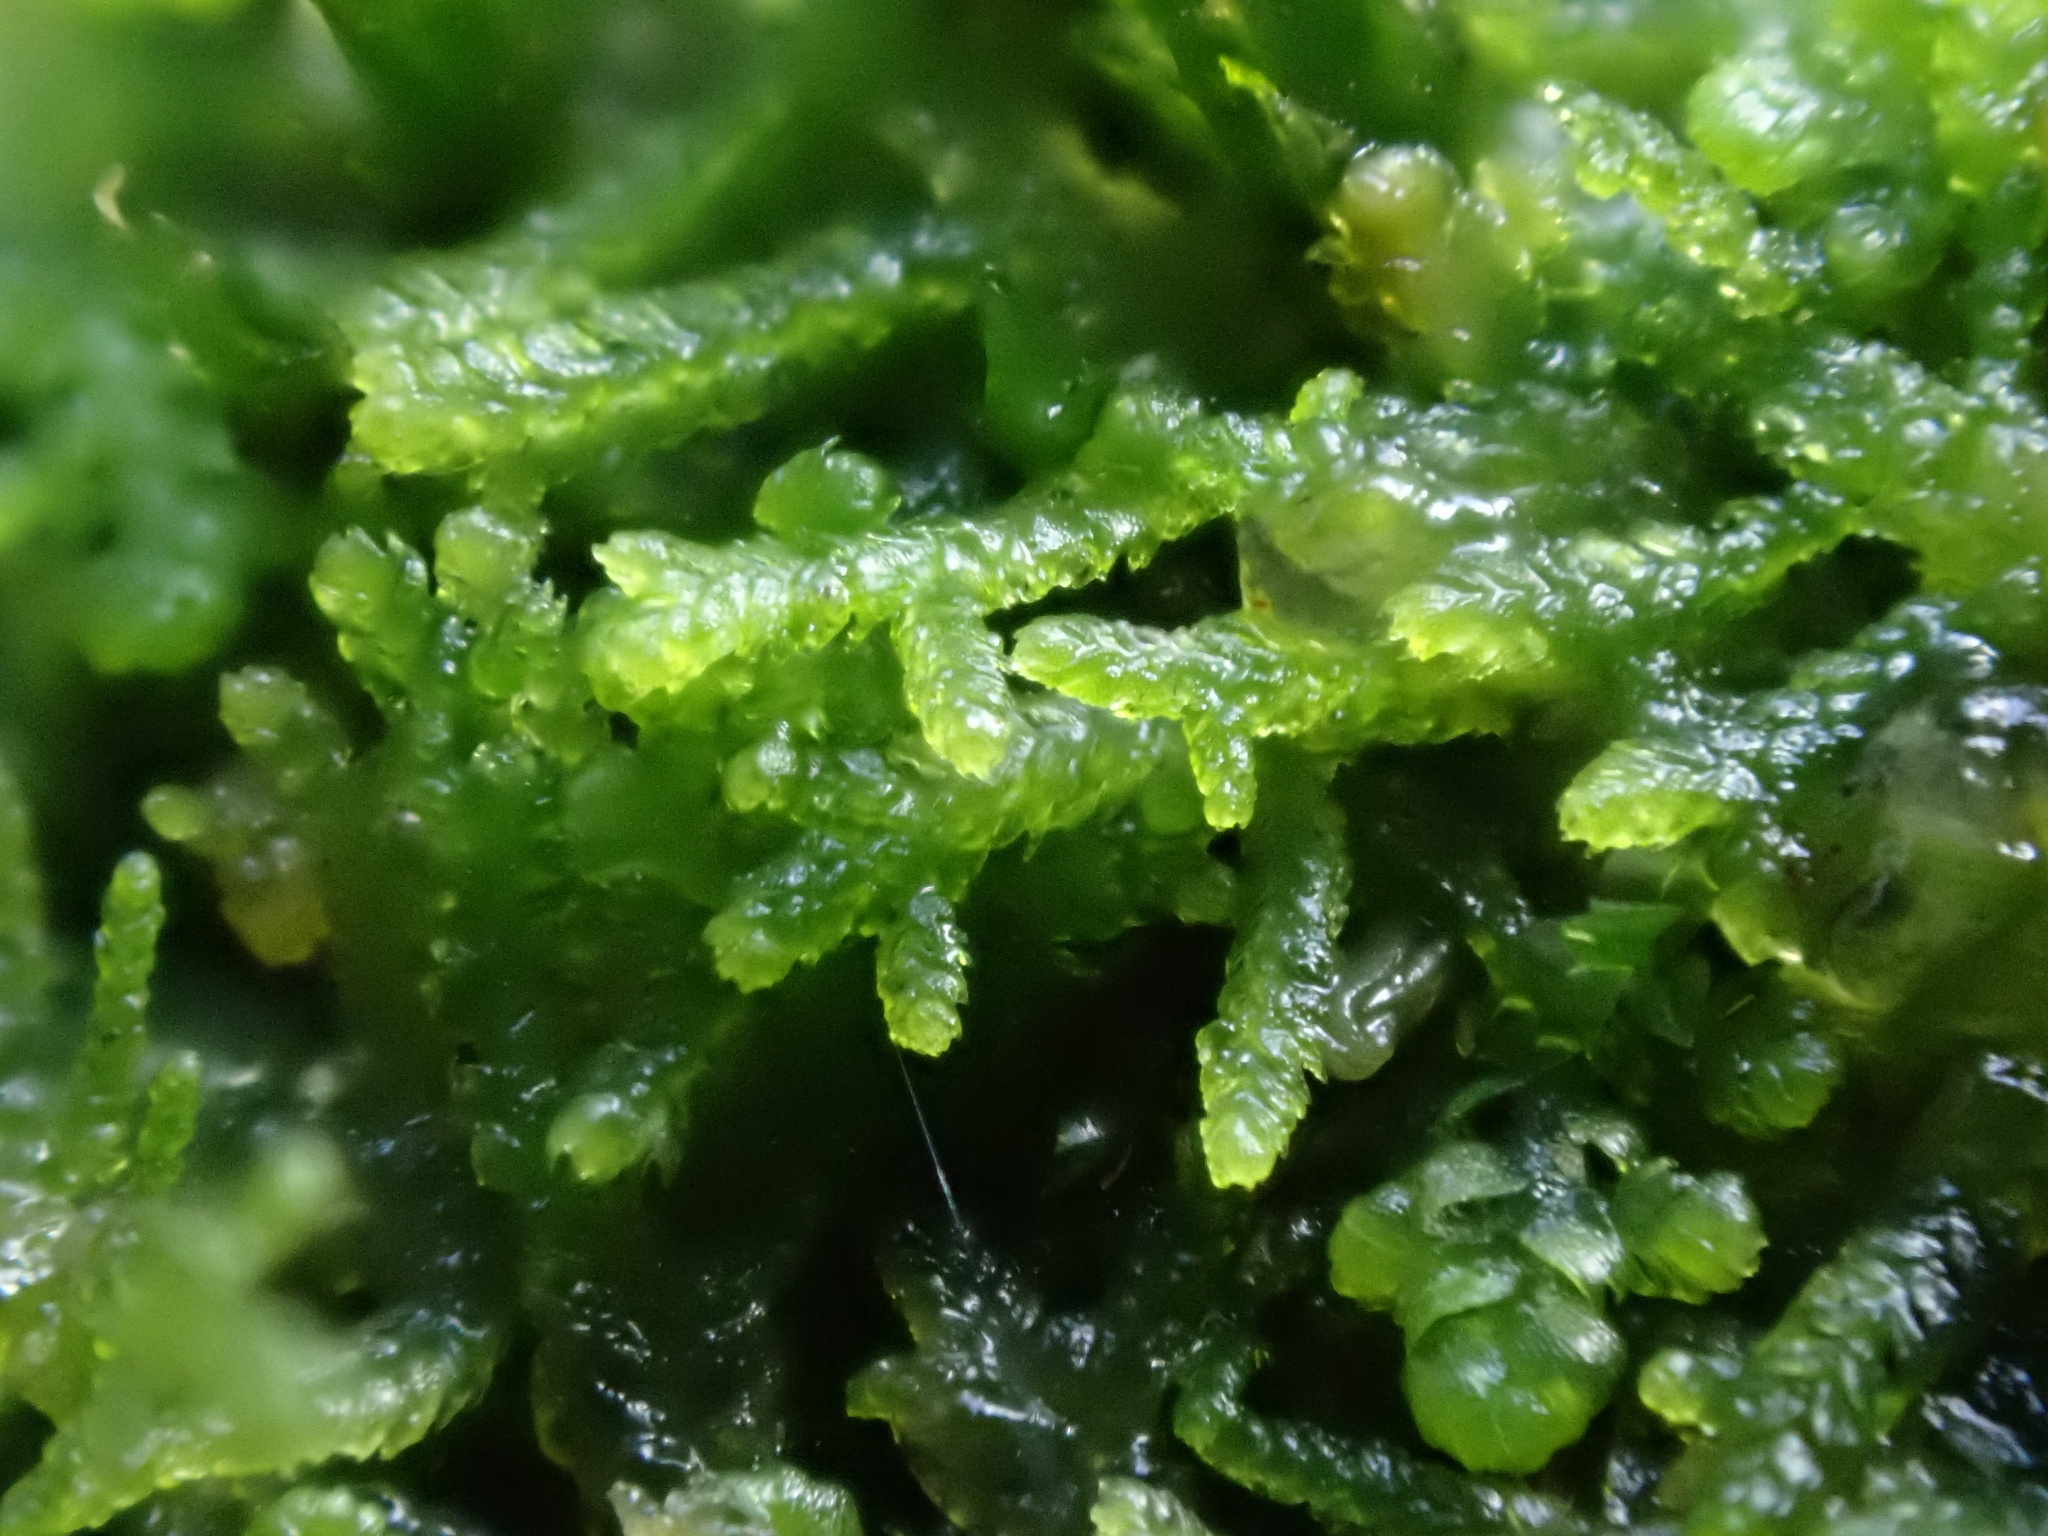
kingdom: Plantae
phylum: Marchantiophyta
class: Jungermanniopsida
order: Jungermanniales
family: Lepidoziaceae
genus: Lepidozia
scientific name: Lepidozia reptans
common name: Creeping fingerwort
